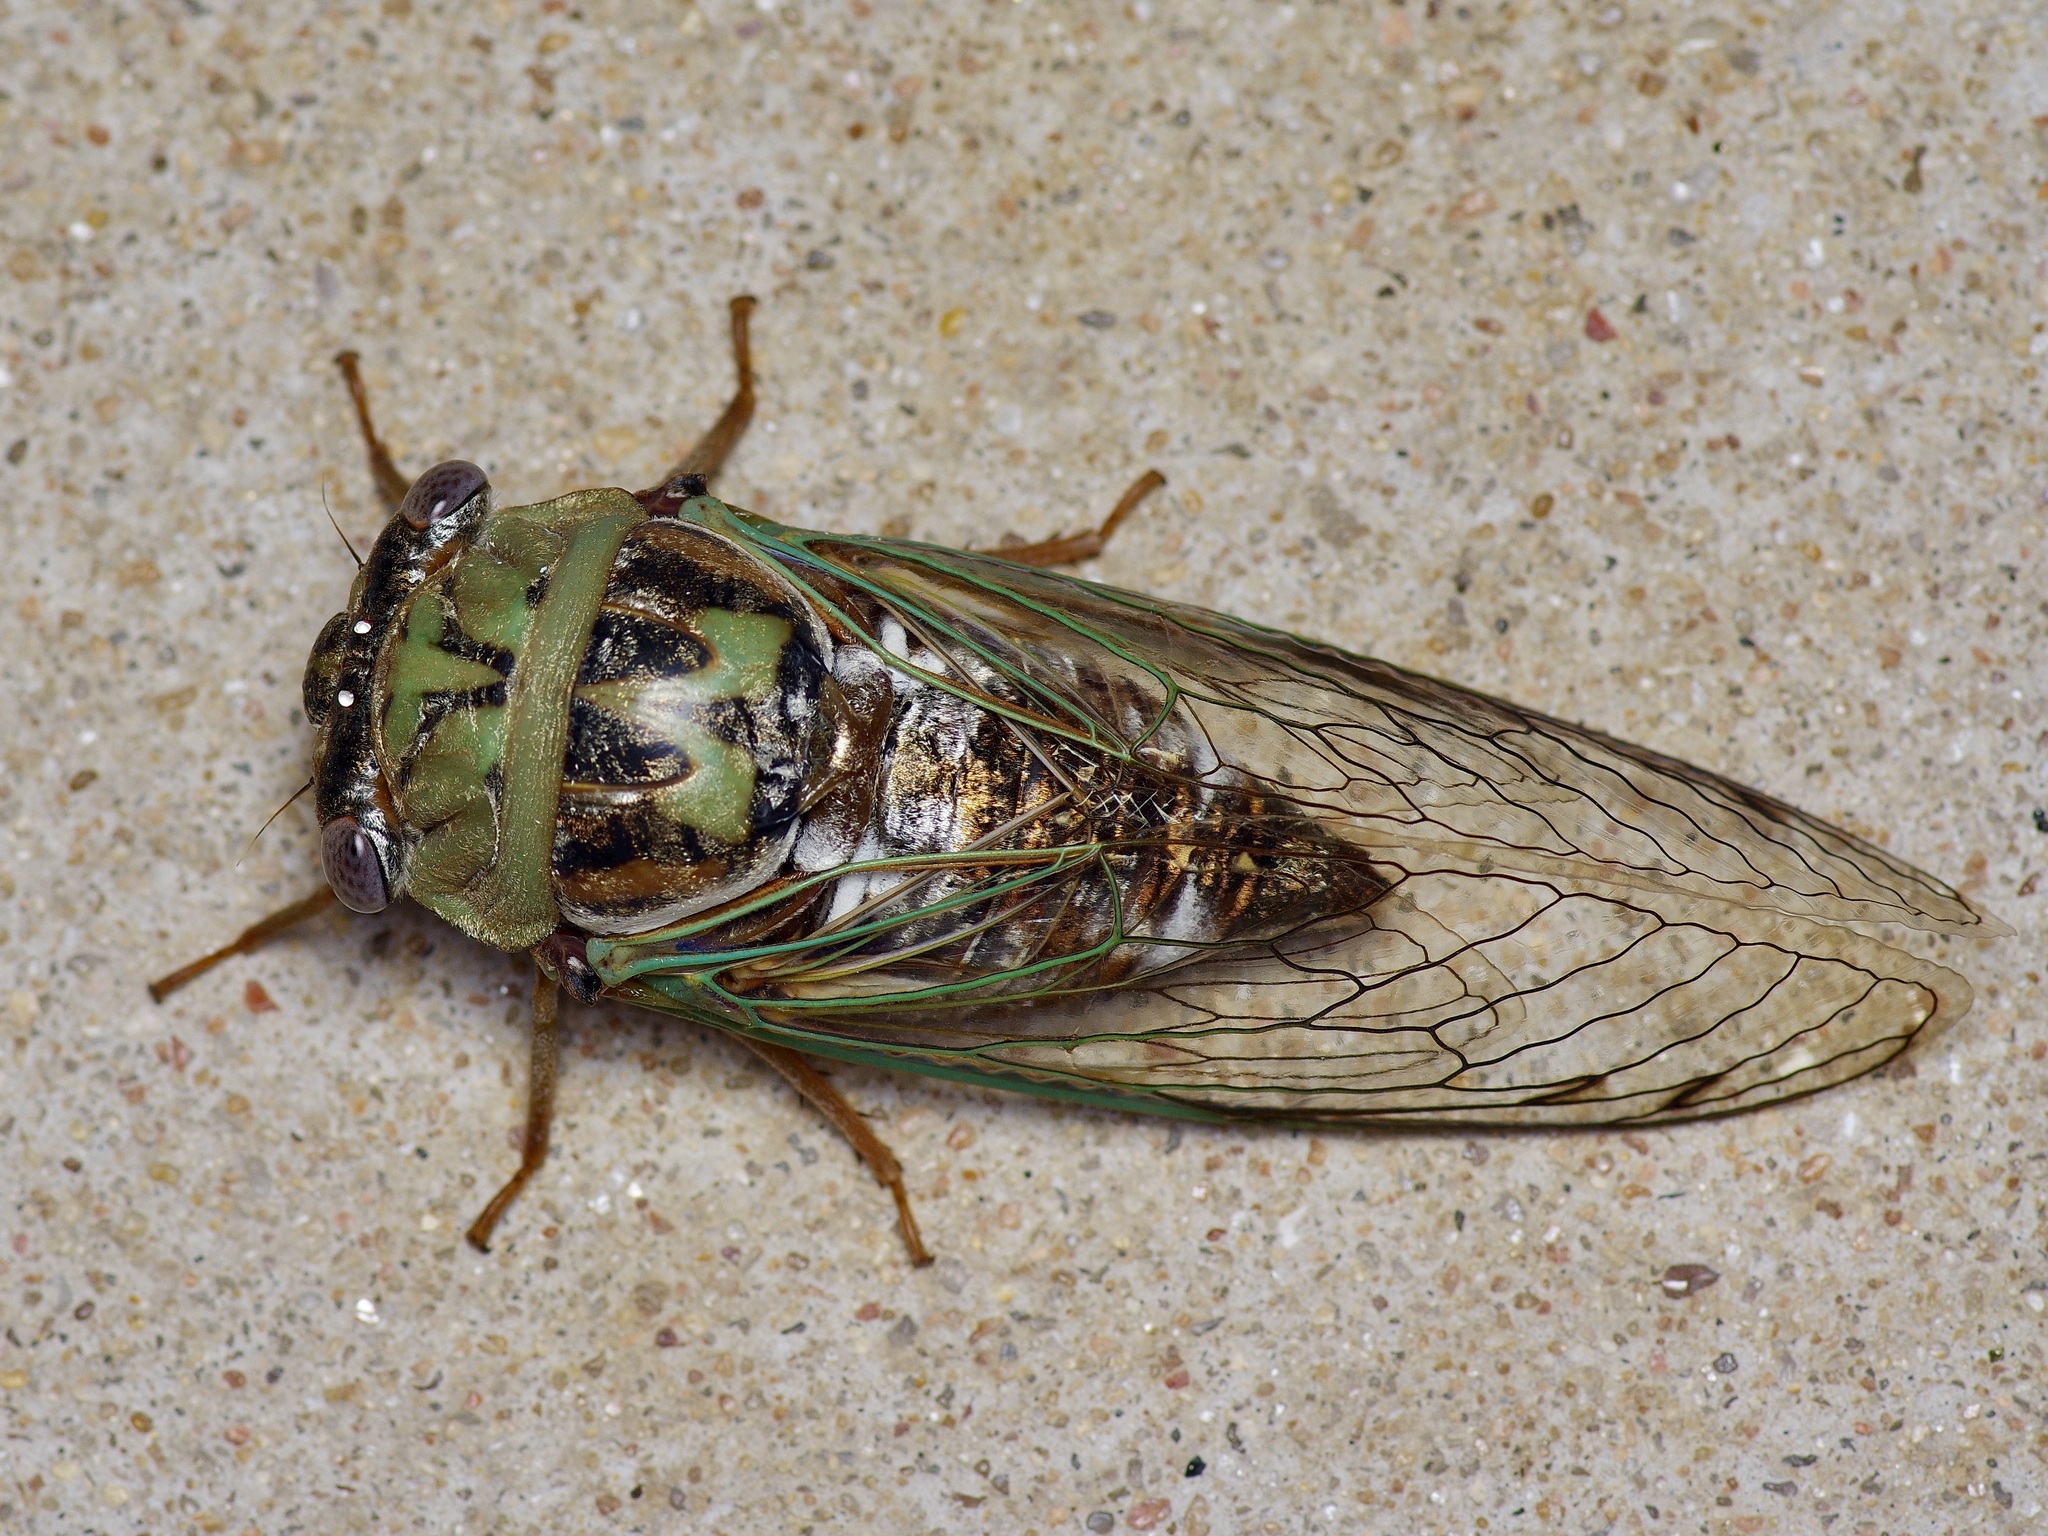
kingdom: Animalia
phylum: Arthropoda
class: Insecta
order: Hemiptera
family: Cicadidae
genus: Megatibicen
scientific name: Megatibicen resh
